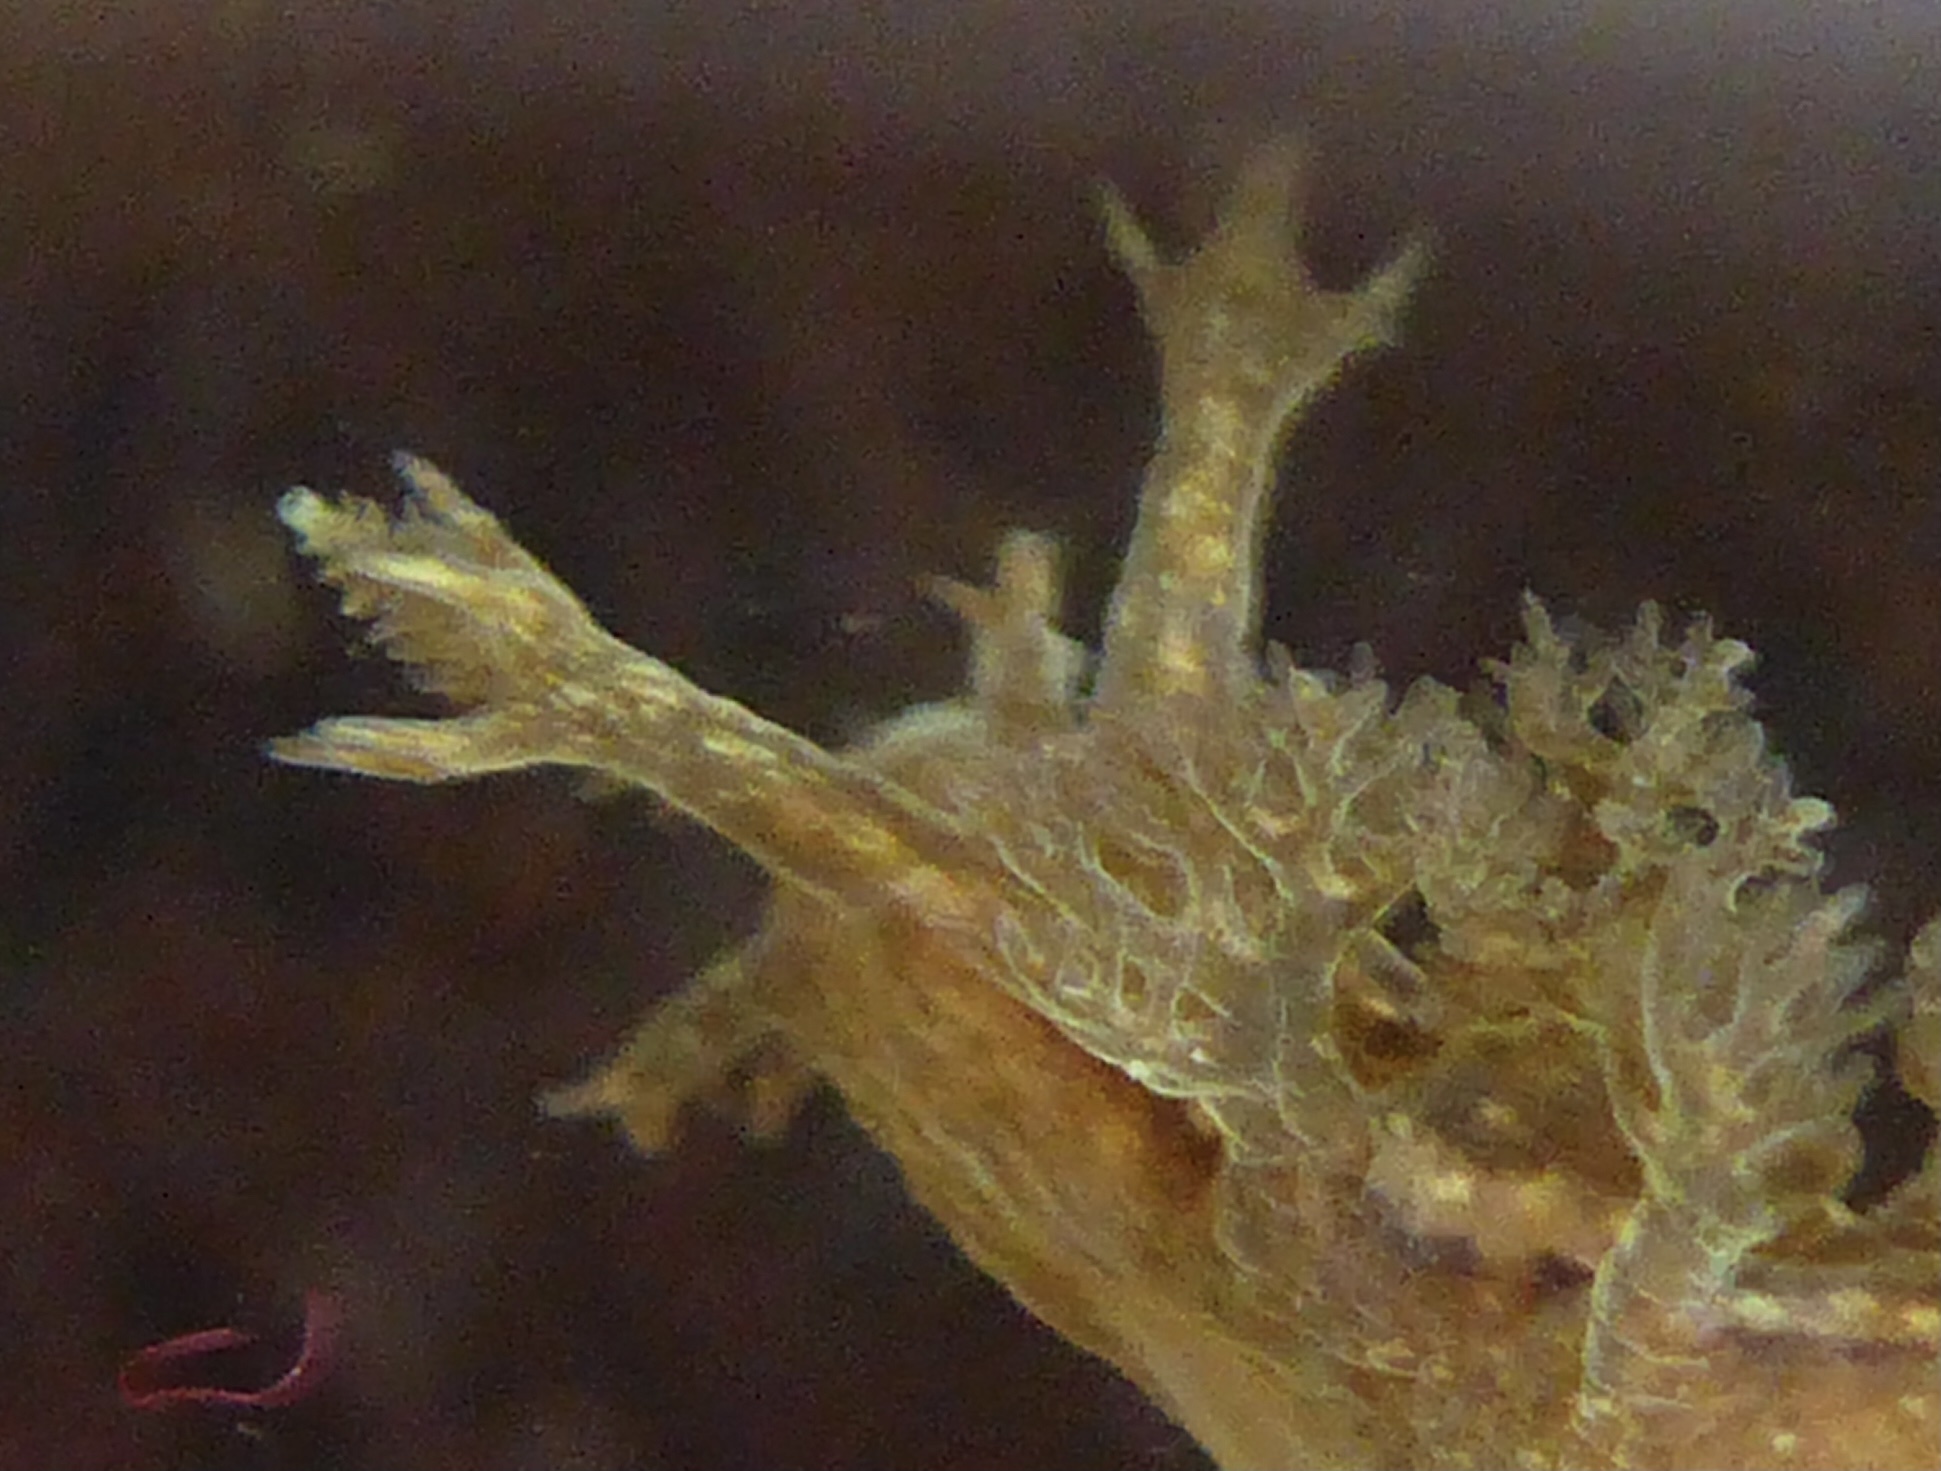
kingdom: Animalia
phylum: Mollusca
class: Gastropoda
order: Nudibranchia
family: Dendronotidae
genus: Dendronotus
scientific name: Dendronotus subramosus
